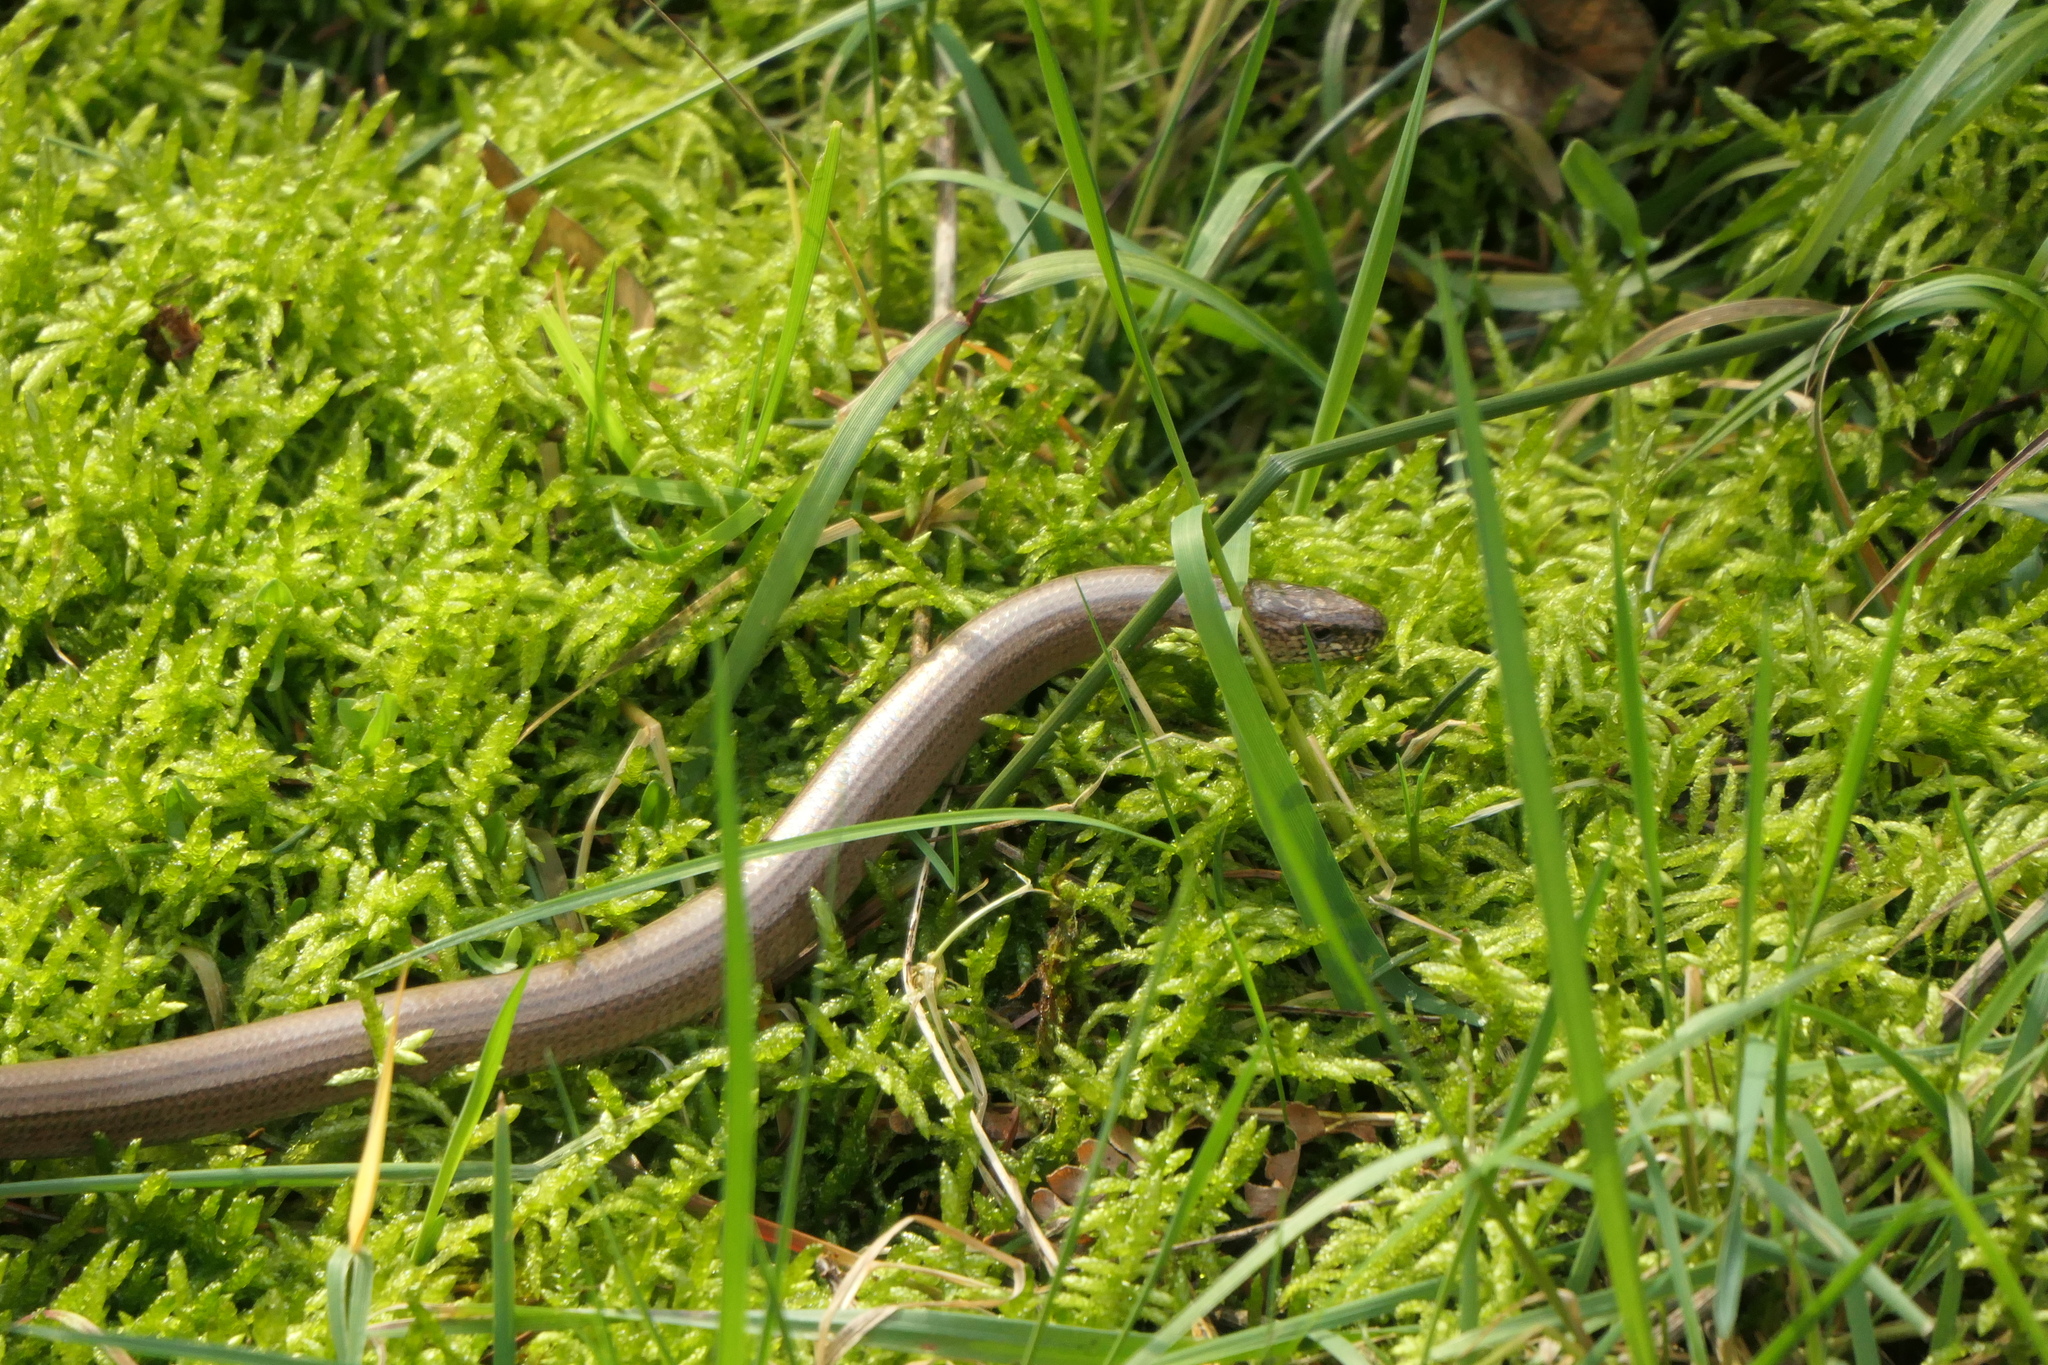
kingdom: Animalia
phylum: Chordata
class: Squamata
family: Anguidae
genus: Anguis
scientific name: Anguis fragilis
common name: Slow worm
